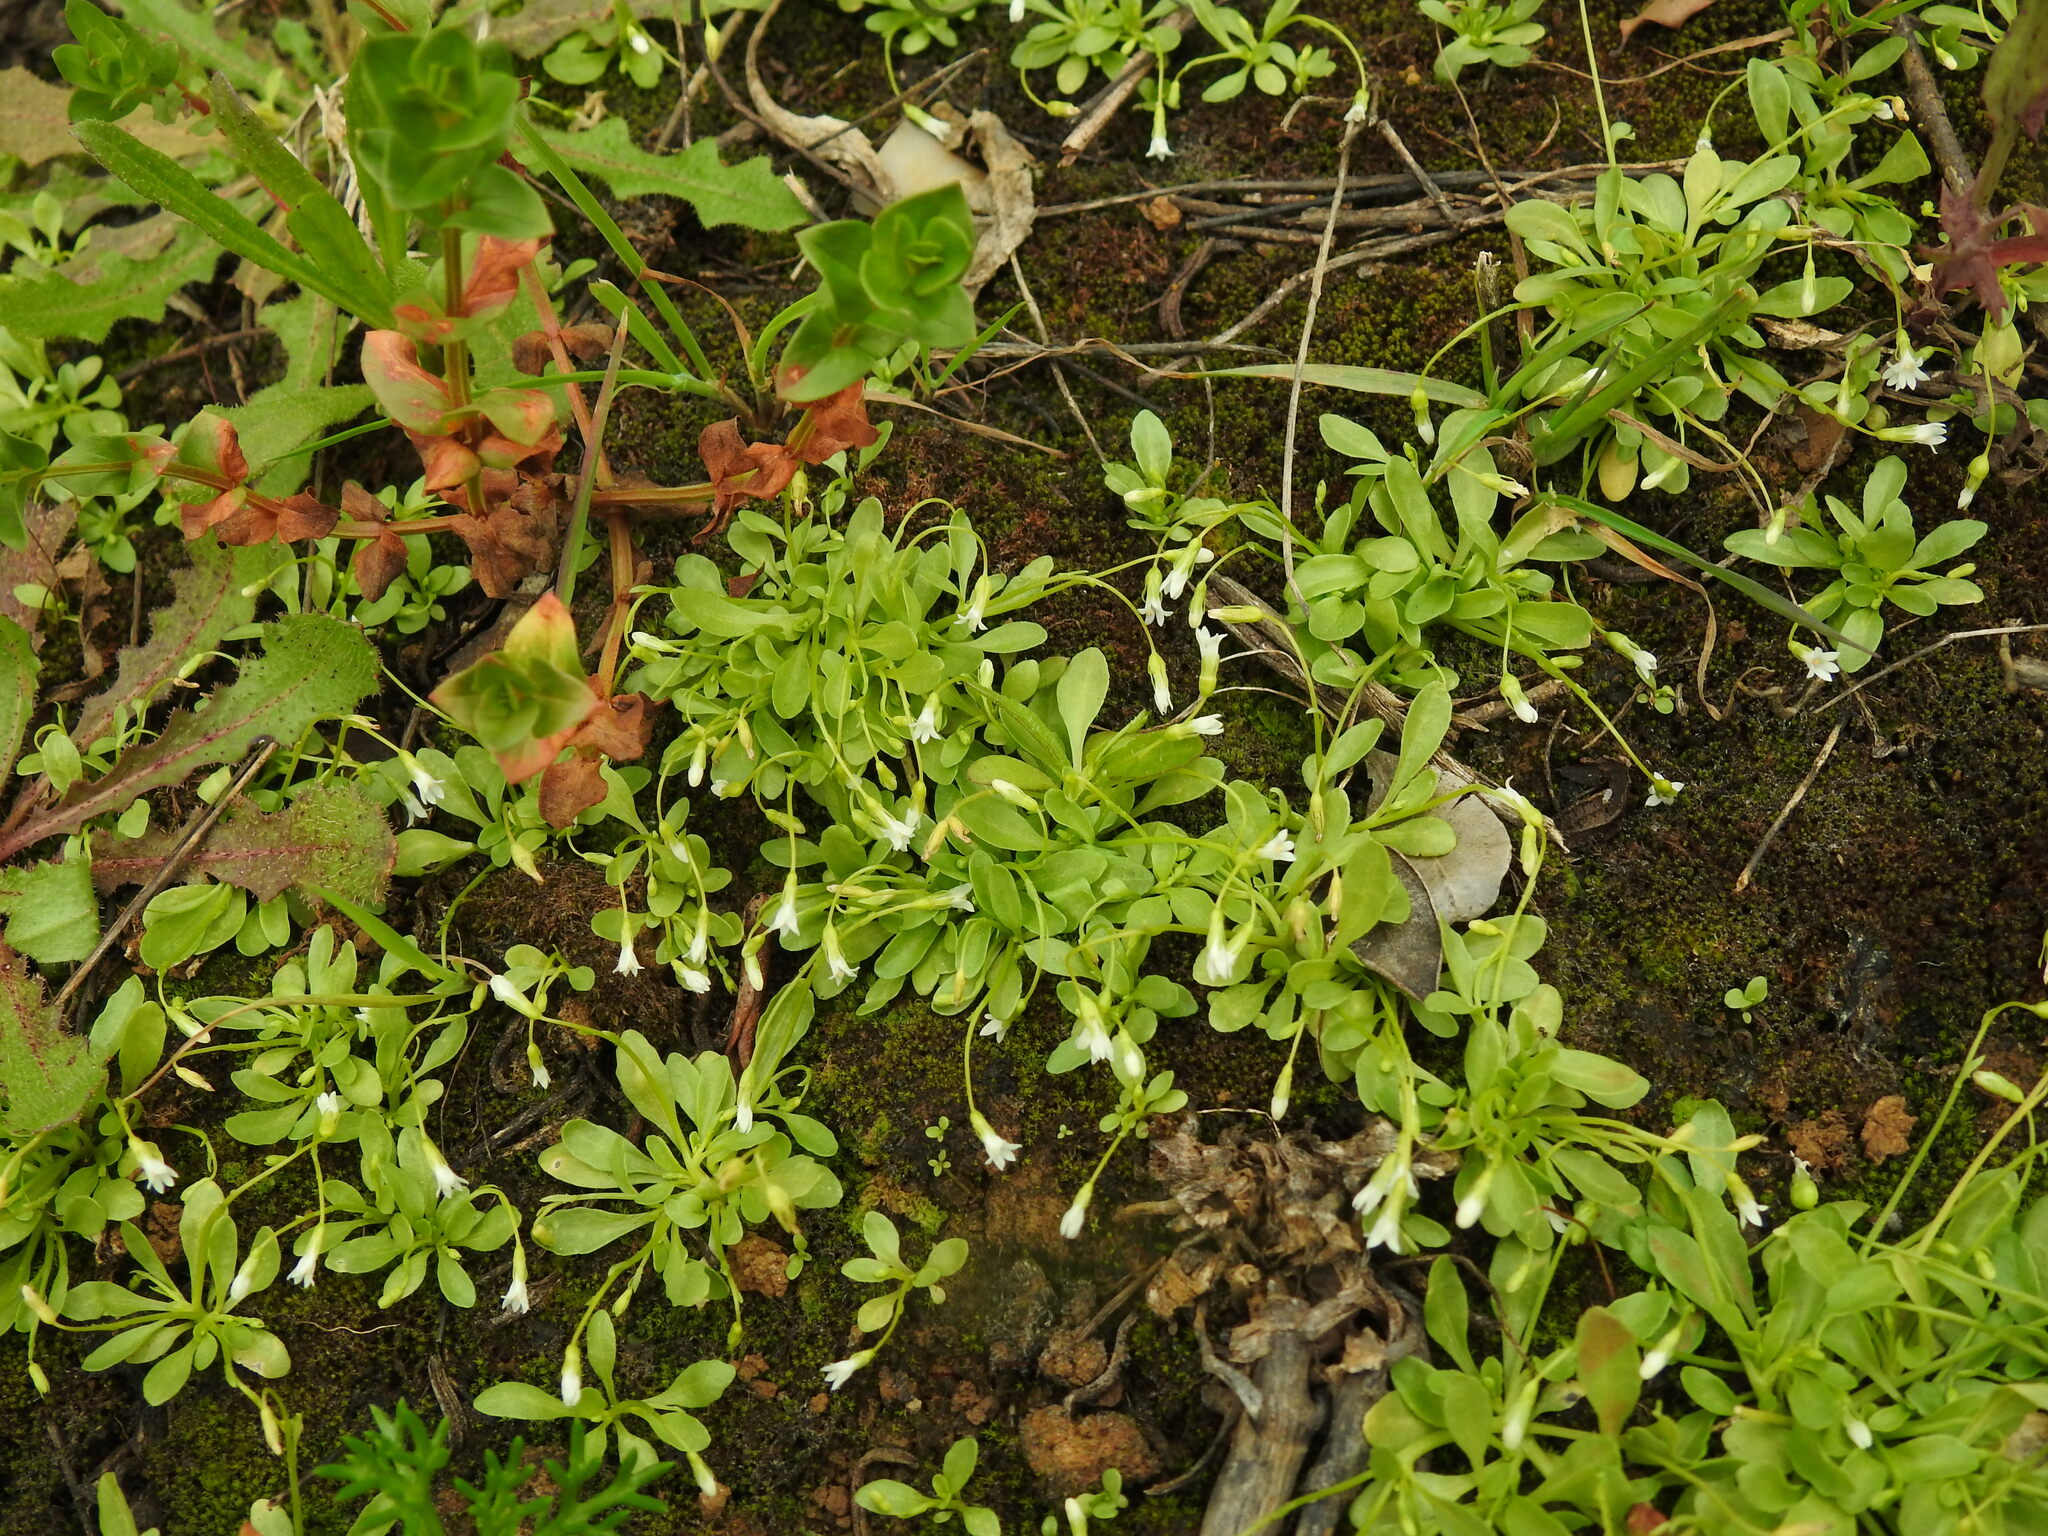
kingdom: Plantae
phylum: Tracheophyta
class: Magnoliopsida
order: Asterales
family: Campanulaceae
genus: Solenopsis
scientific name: Solenopsis laurentia
